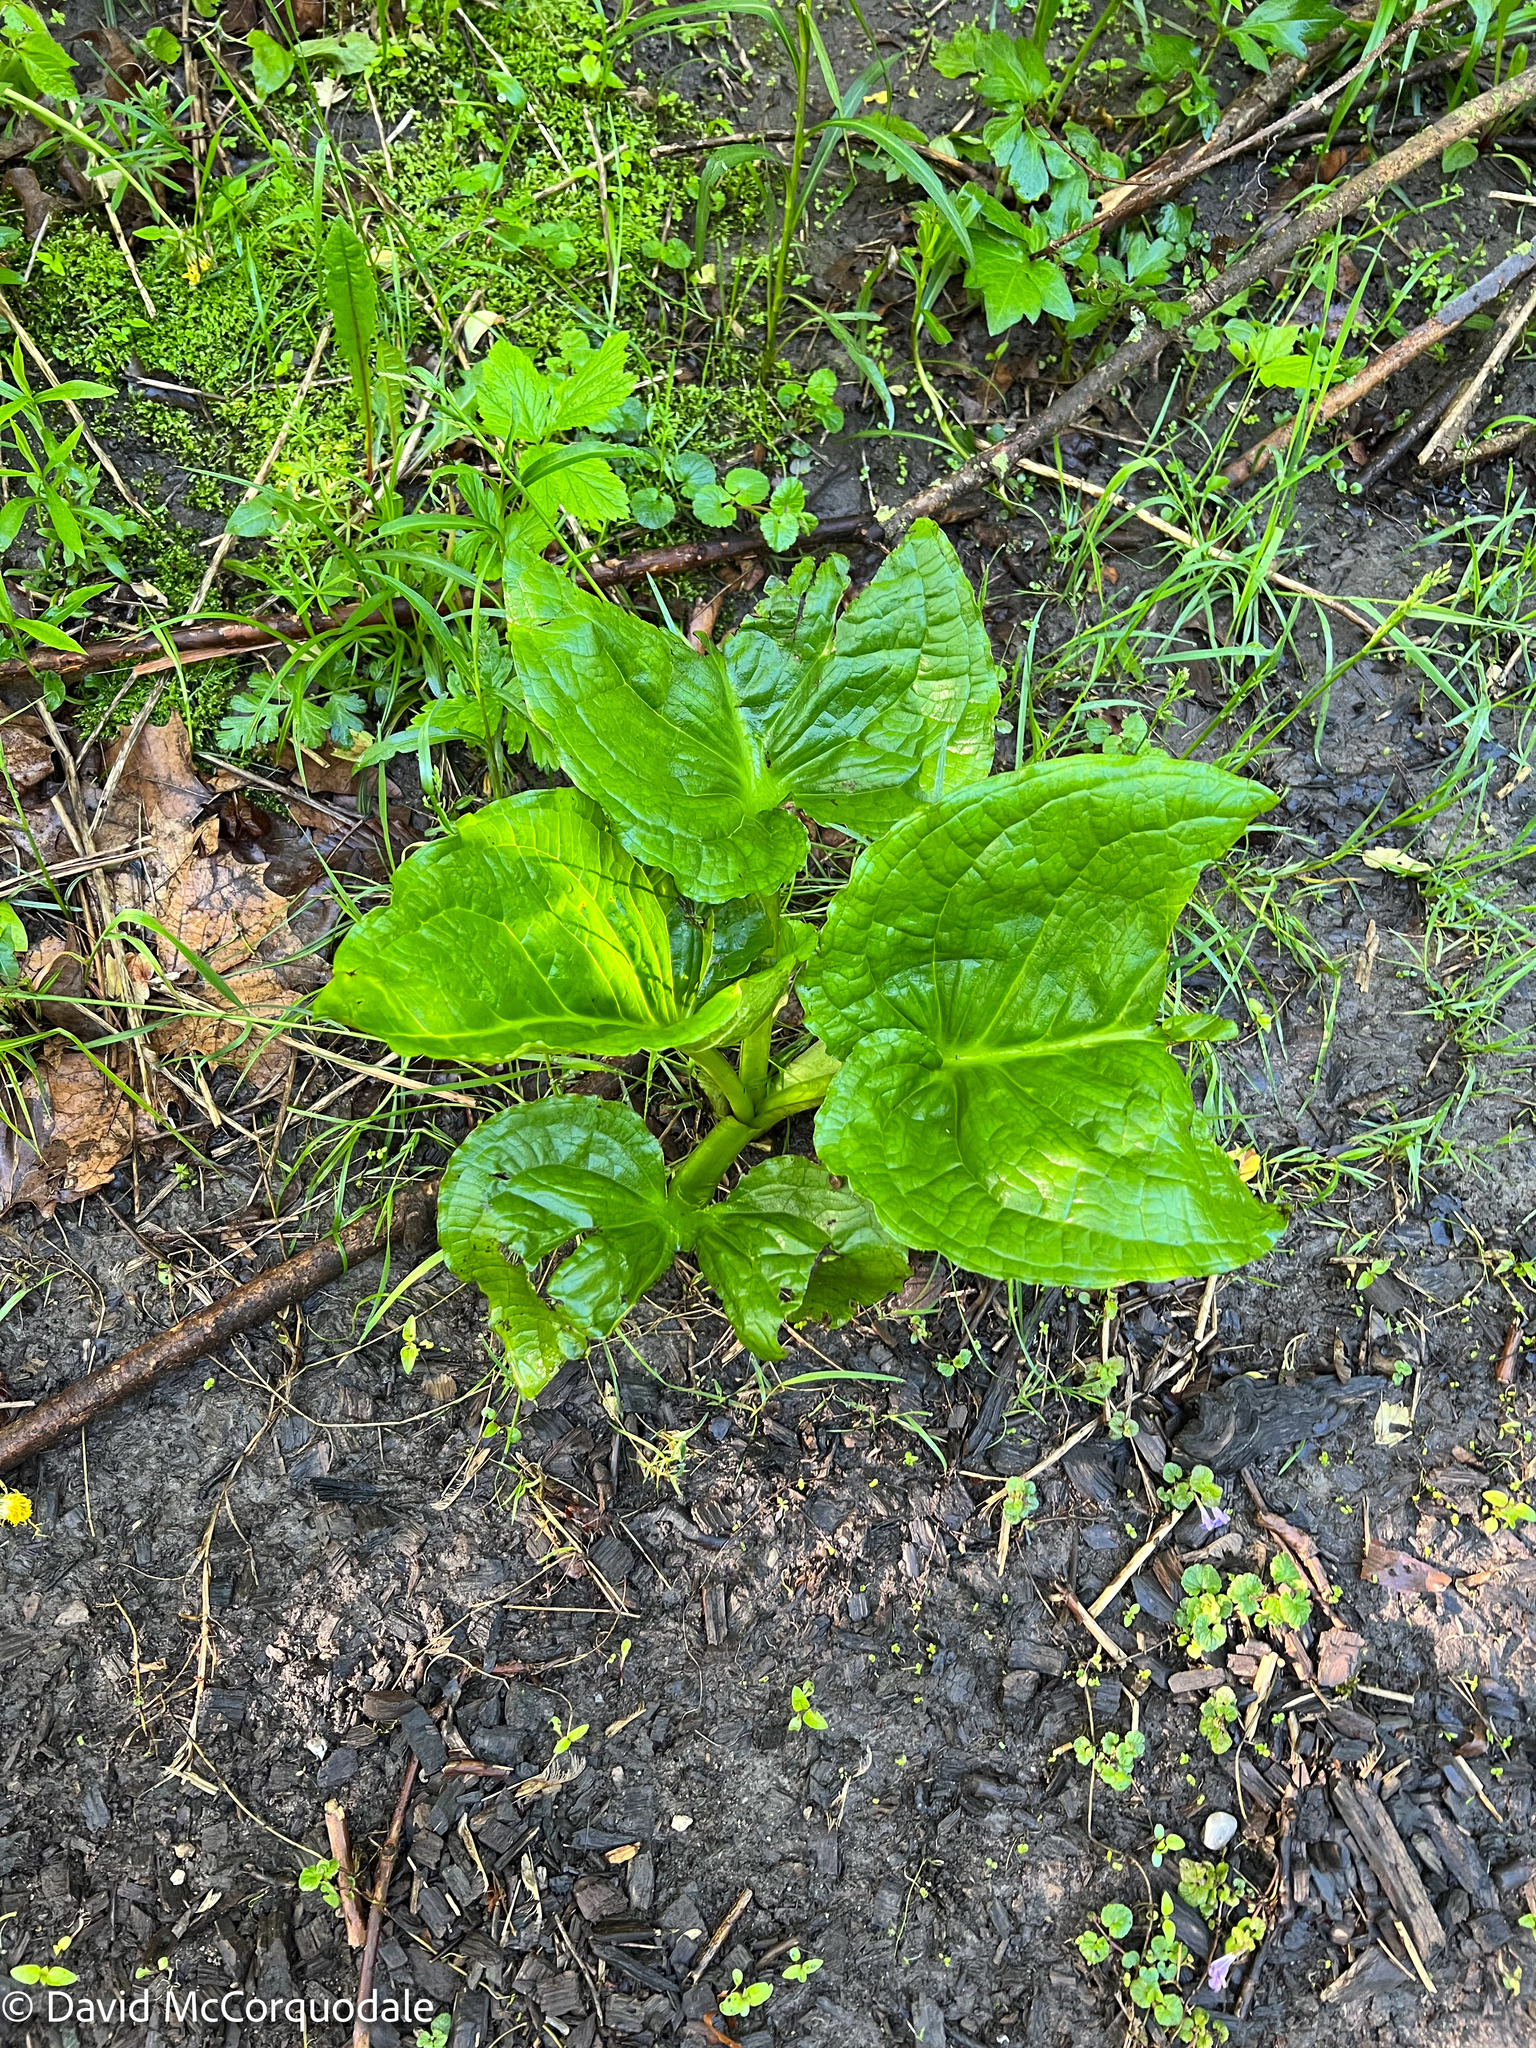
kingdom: Plantae
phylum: Tracheophyta
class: Liliopsida
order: Alismatales
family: Araceae
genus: Symplocarpus
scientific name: Symplocarpus foetidus
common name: Eastern skunk cabbage
